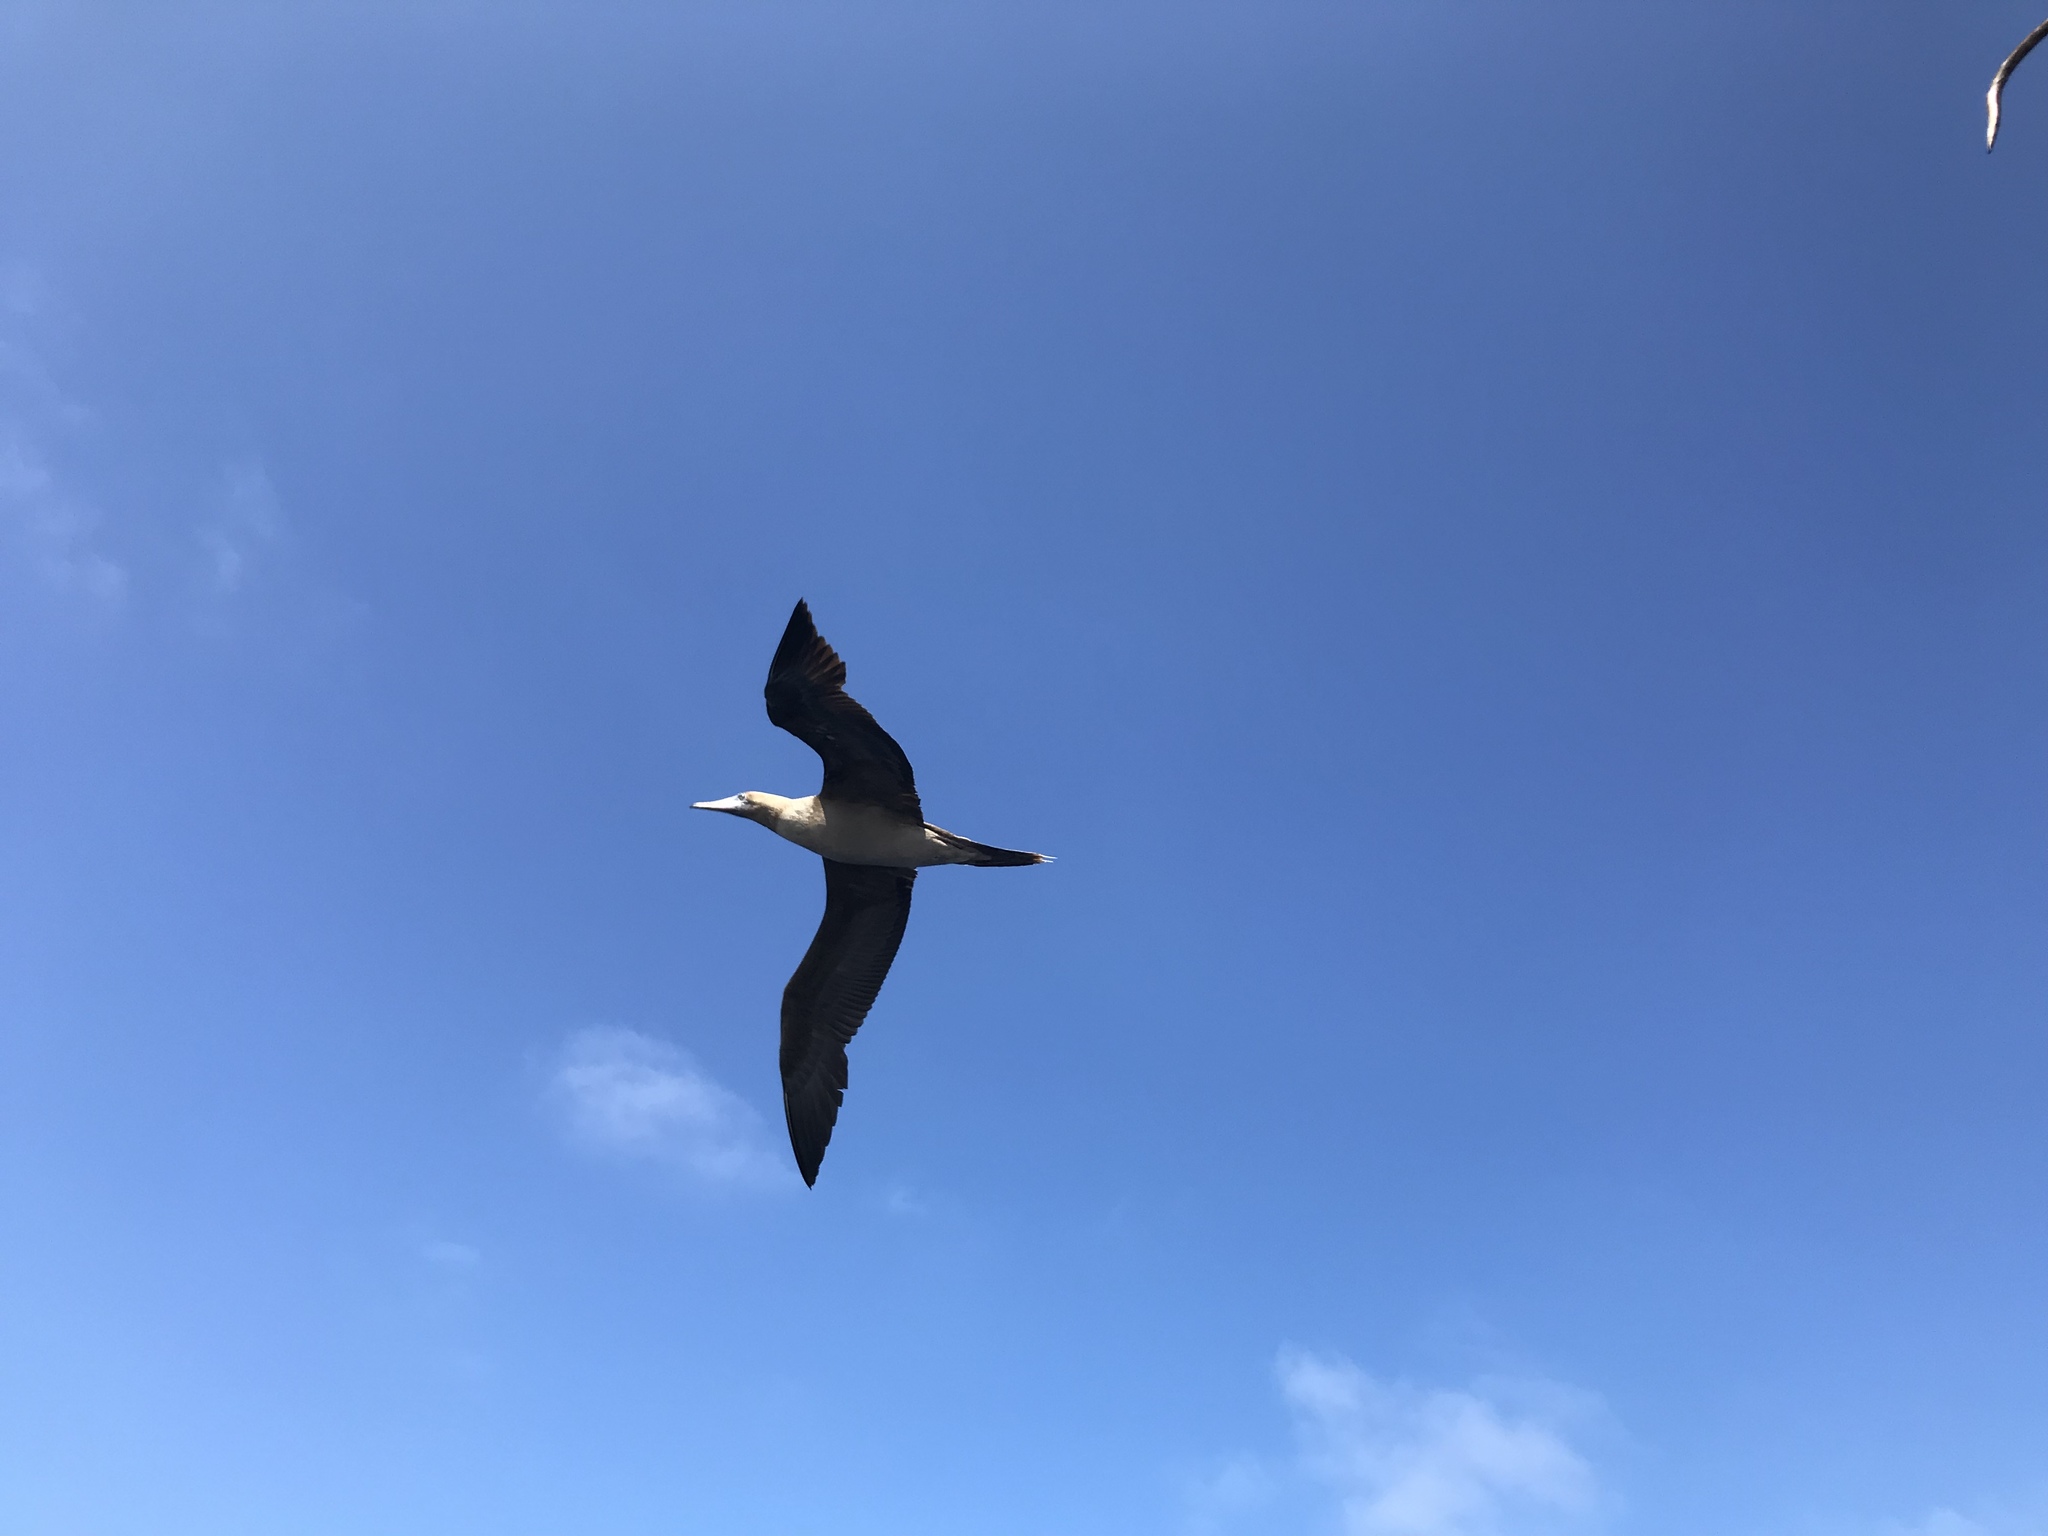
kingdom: Animalia
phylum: Chordata
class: Aves
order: Suliformes
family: Sulidae
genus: Sula
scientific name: Sula sula
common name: Red-footed booby
